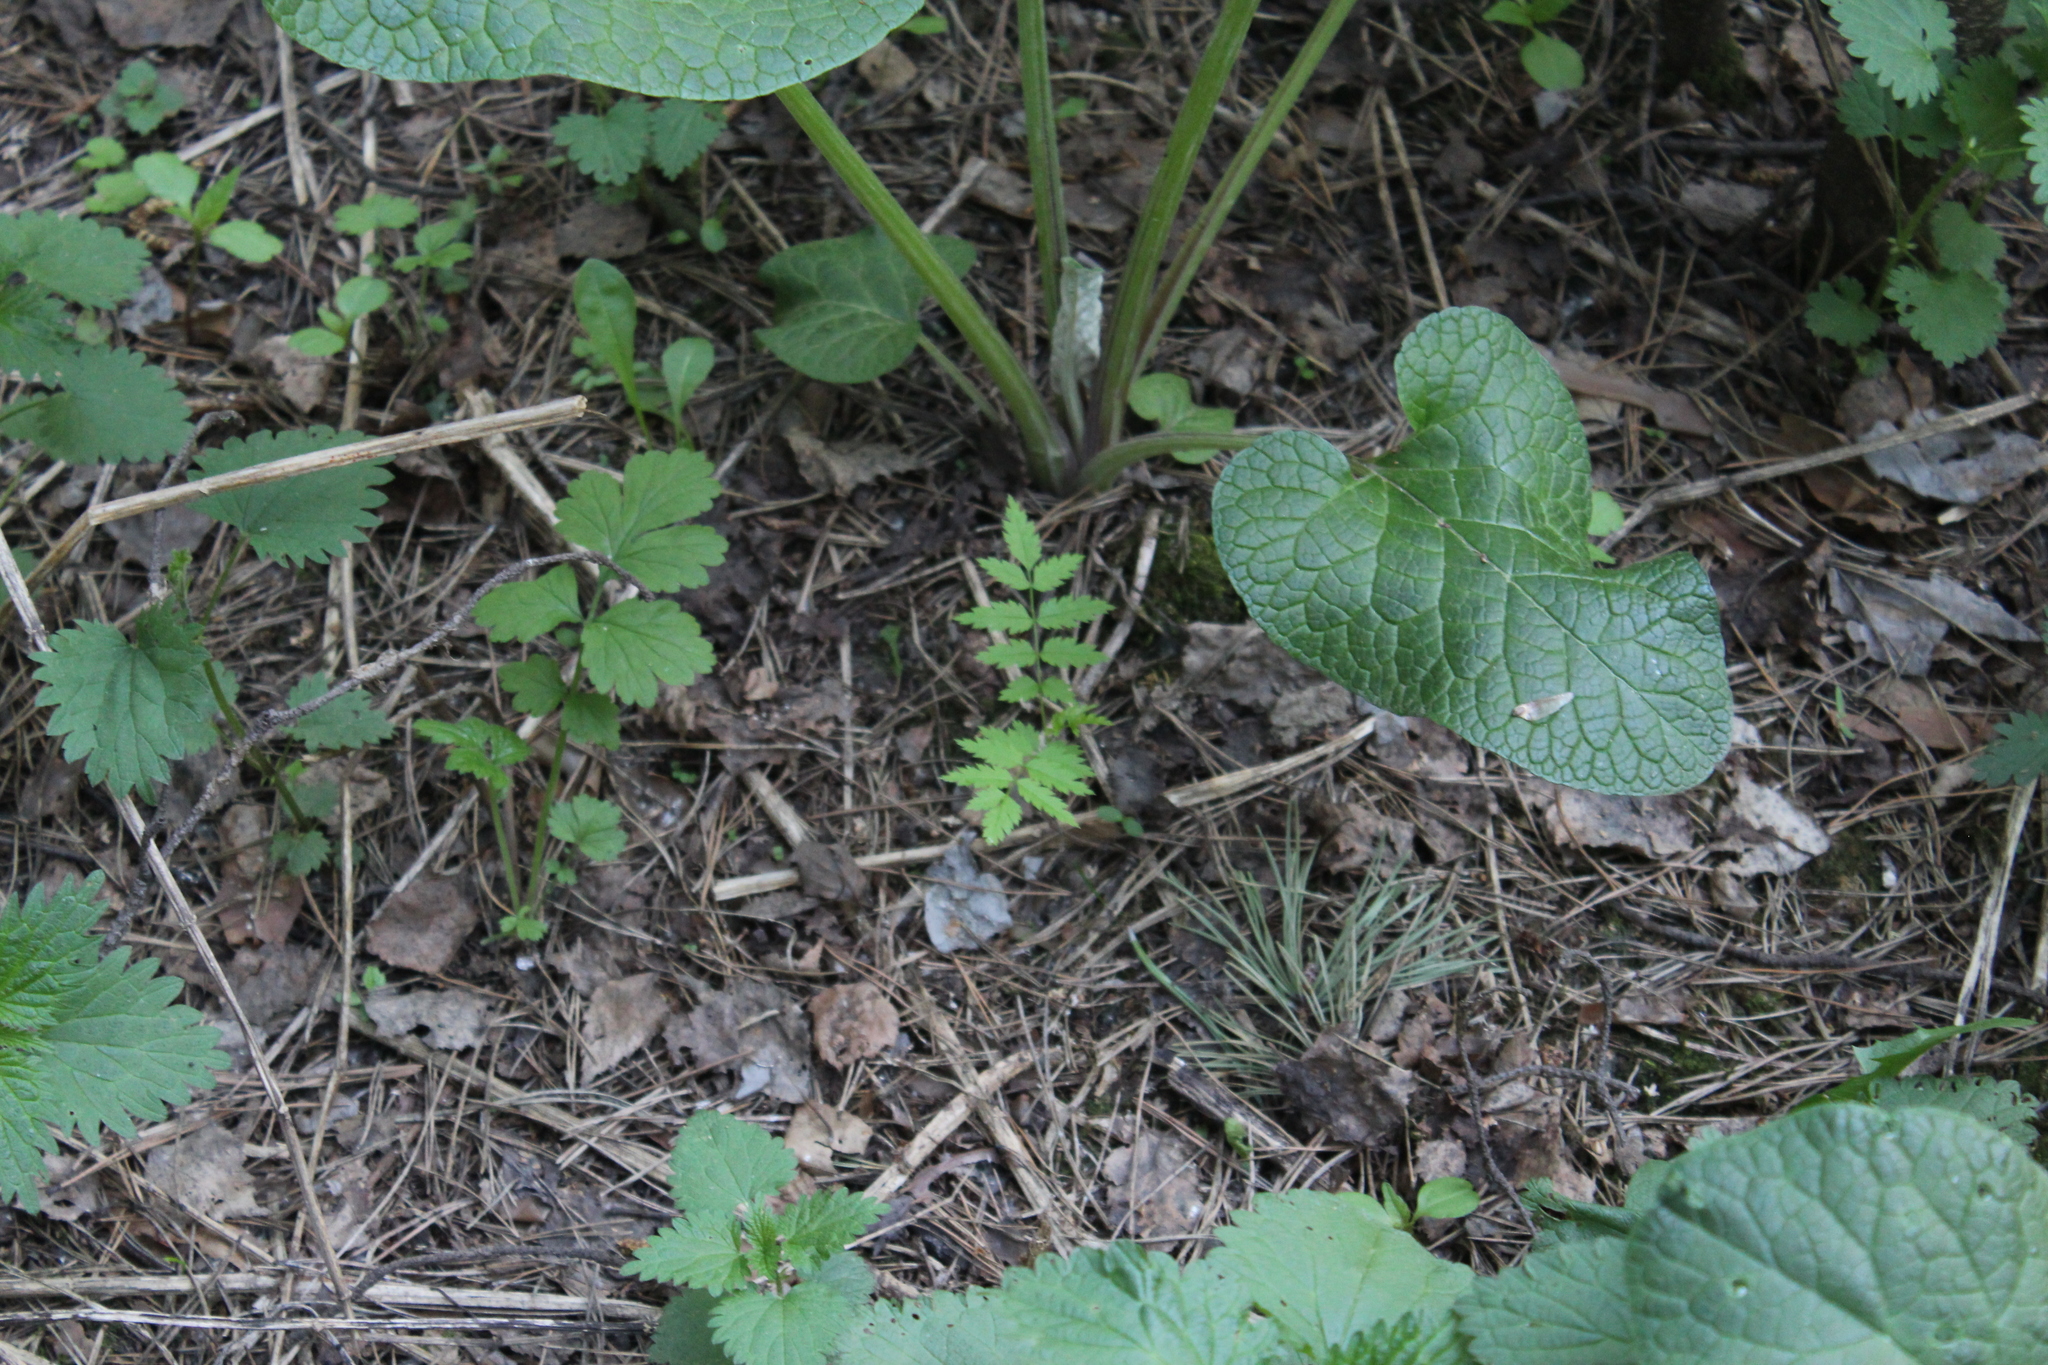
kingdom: Plantae
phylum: Tracheophyta
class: Magnoliopsida
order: Rosales
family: Rosaceae
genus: Sorbus
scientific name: Sorbus aucuparia
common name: Rowan
